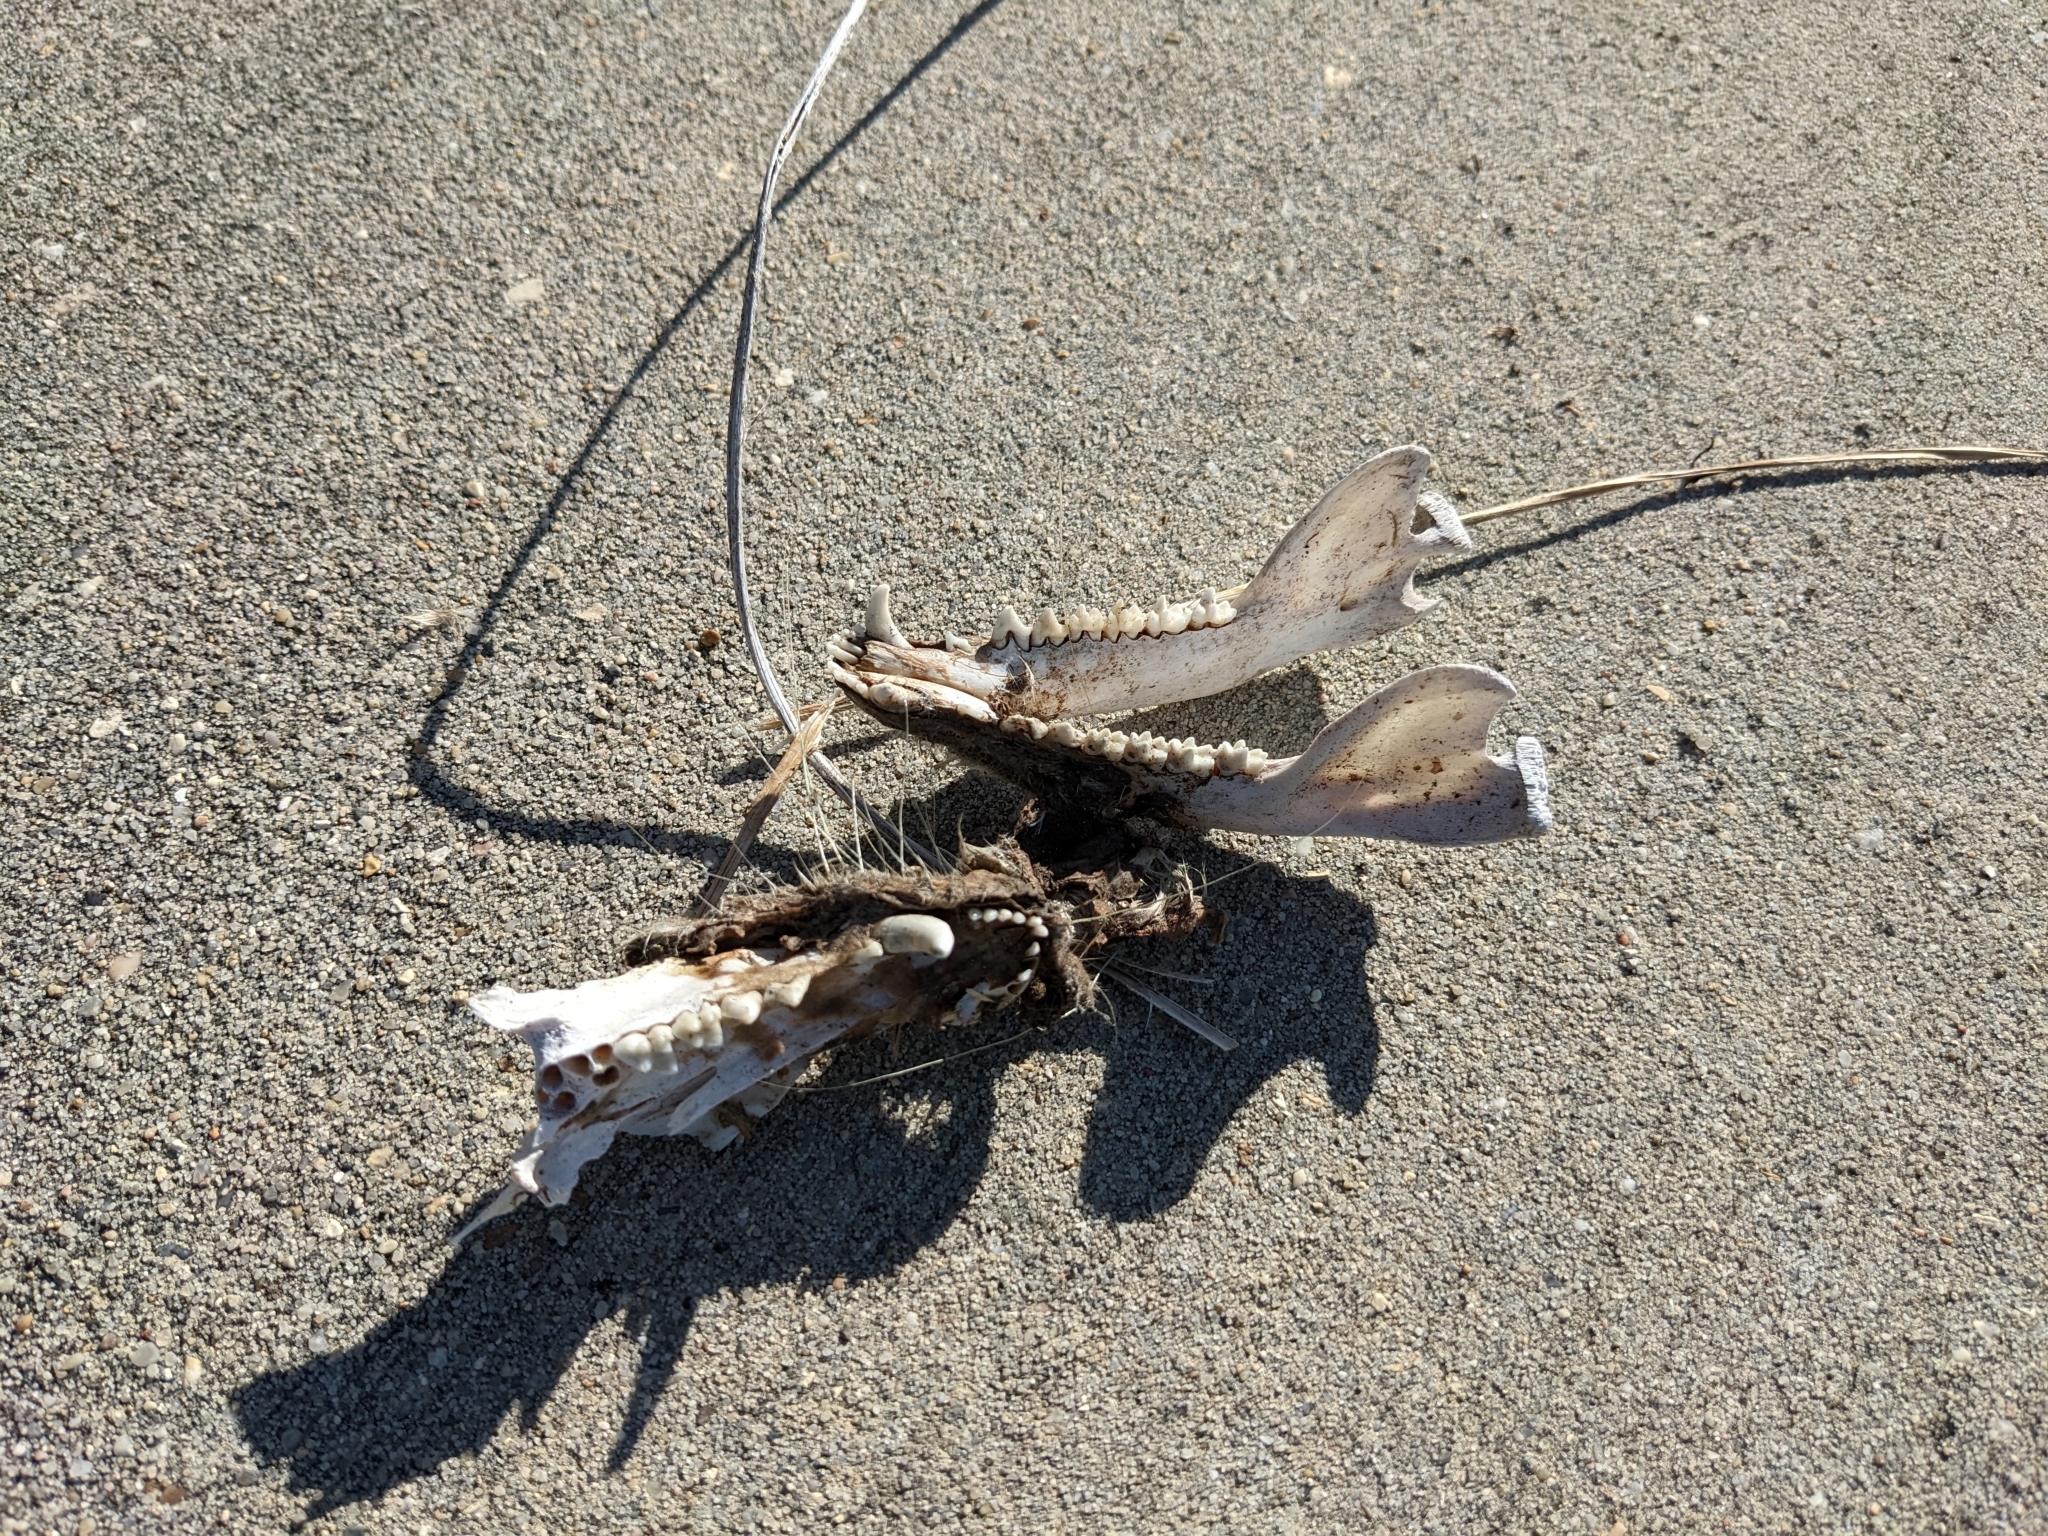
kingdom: Animalia
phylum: Chordata
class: Mammalia
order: Didelphimorphia
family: Didelphidae
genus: Didelphis
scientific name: Didelphis virginiana
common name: Virginia opossum
